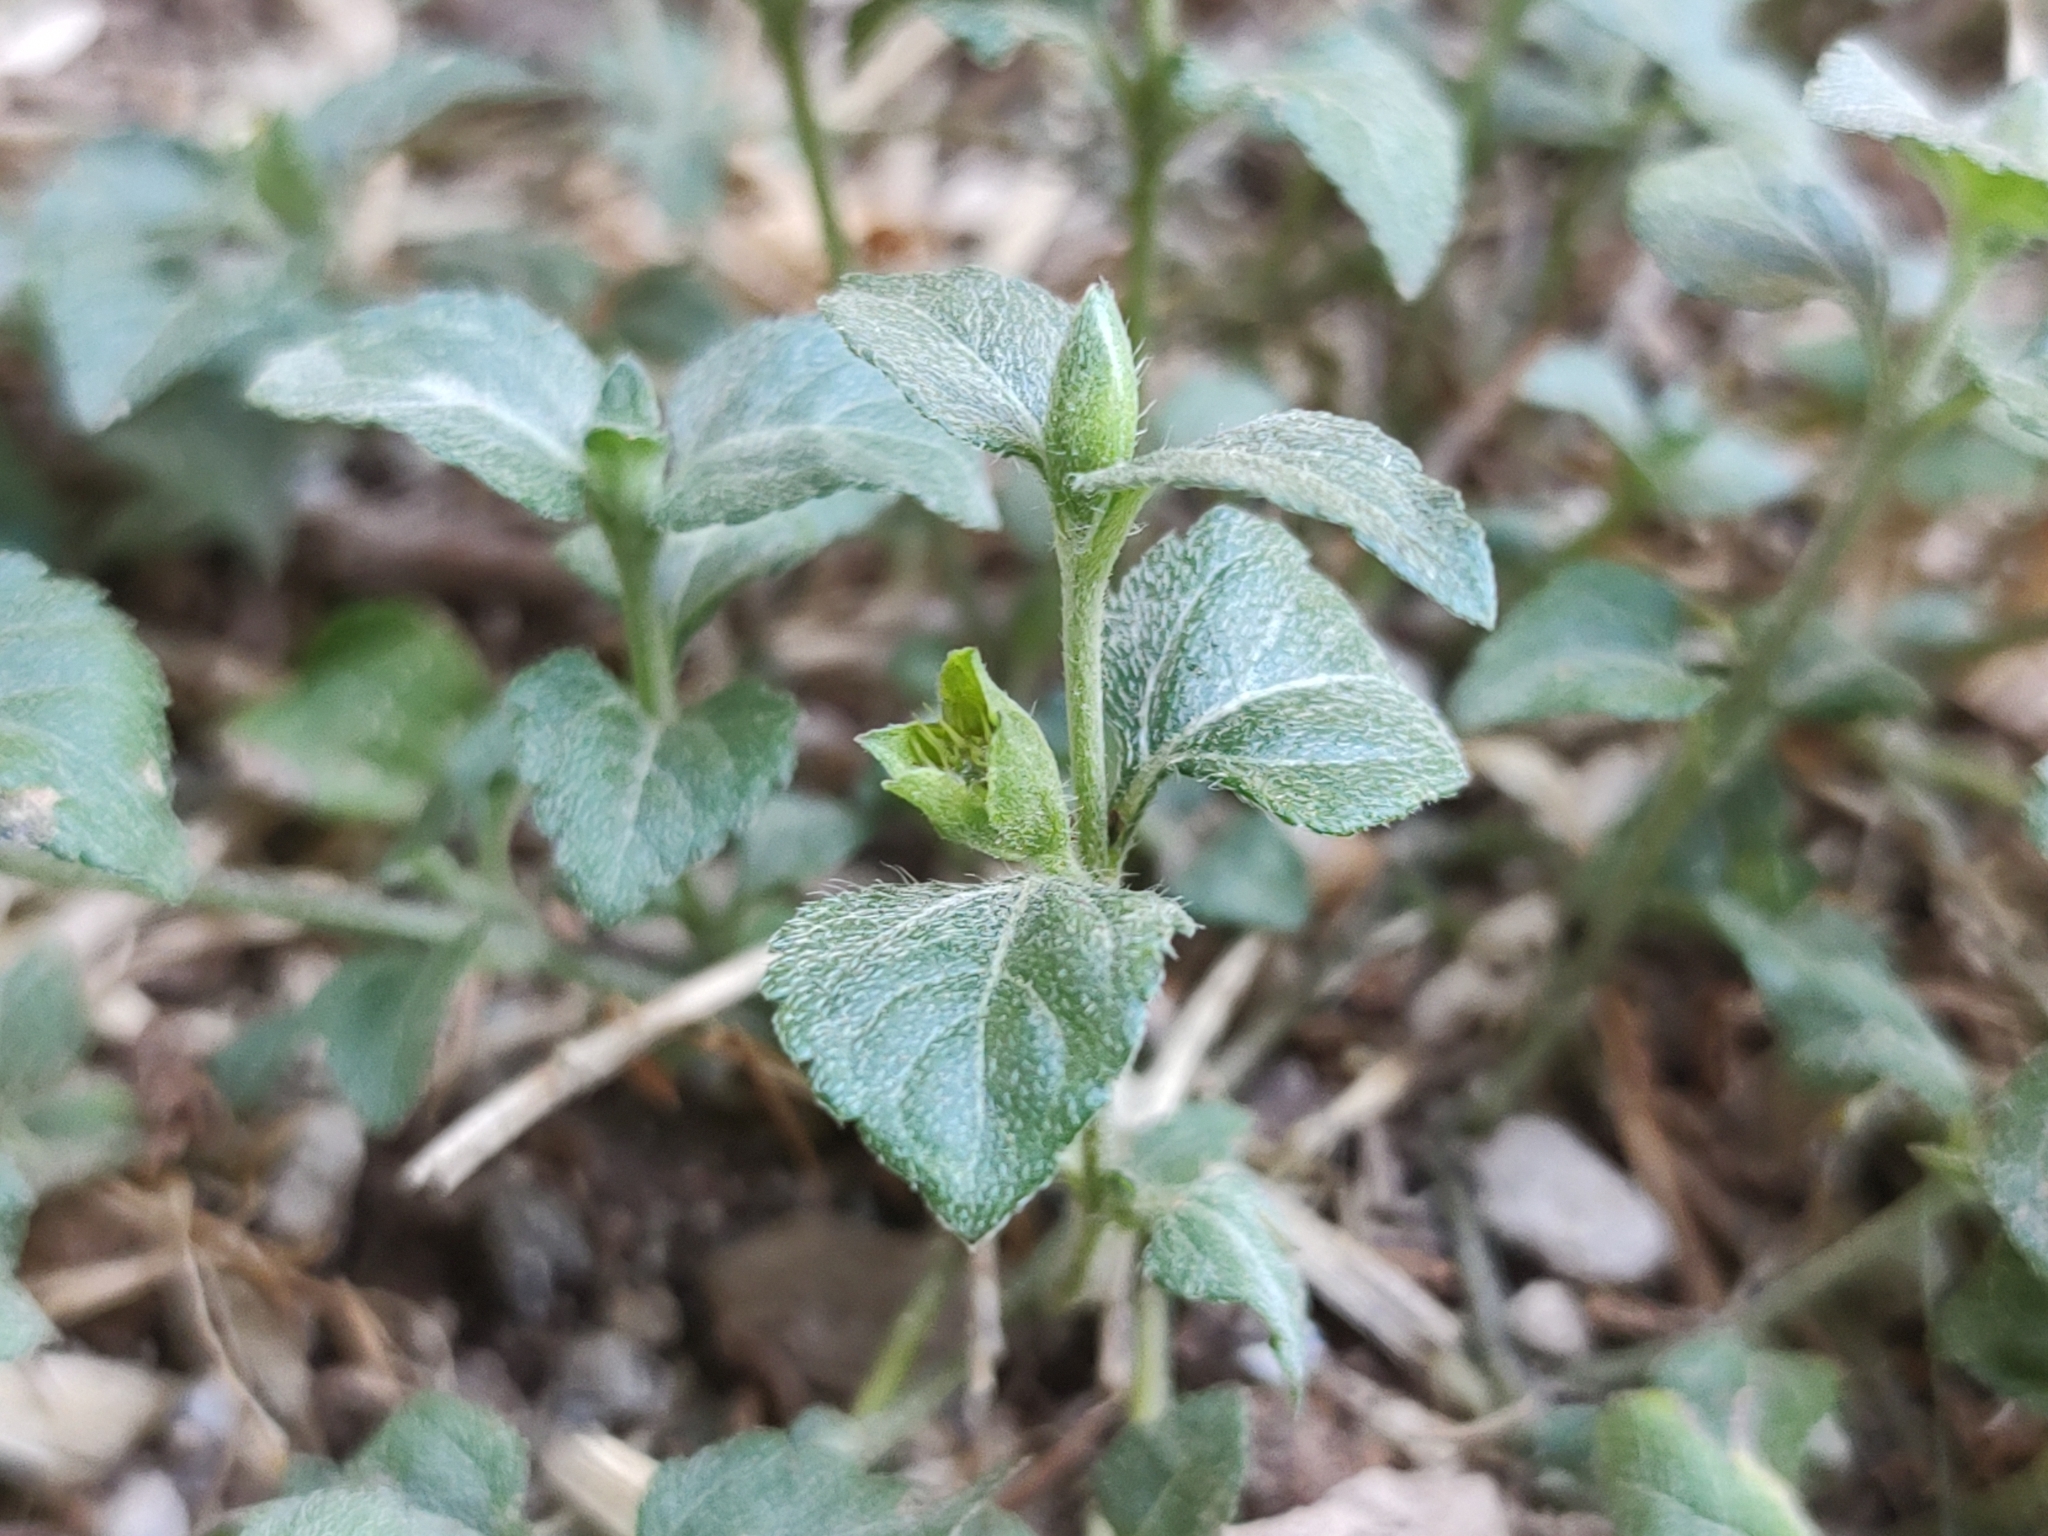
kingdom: Plantae
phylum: Tracheophyta
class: Magnoliopsida
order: Asterales
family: Asteraceae
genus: Calyptocarpus
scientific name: Calyptocarpus vialis
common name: Straggler daisy
